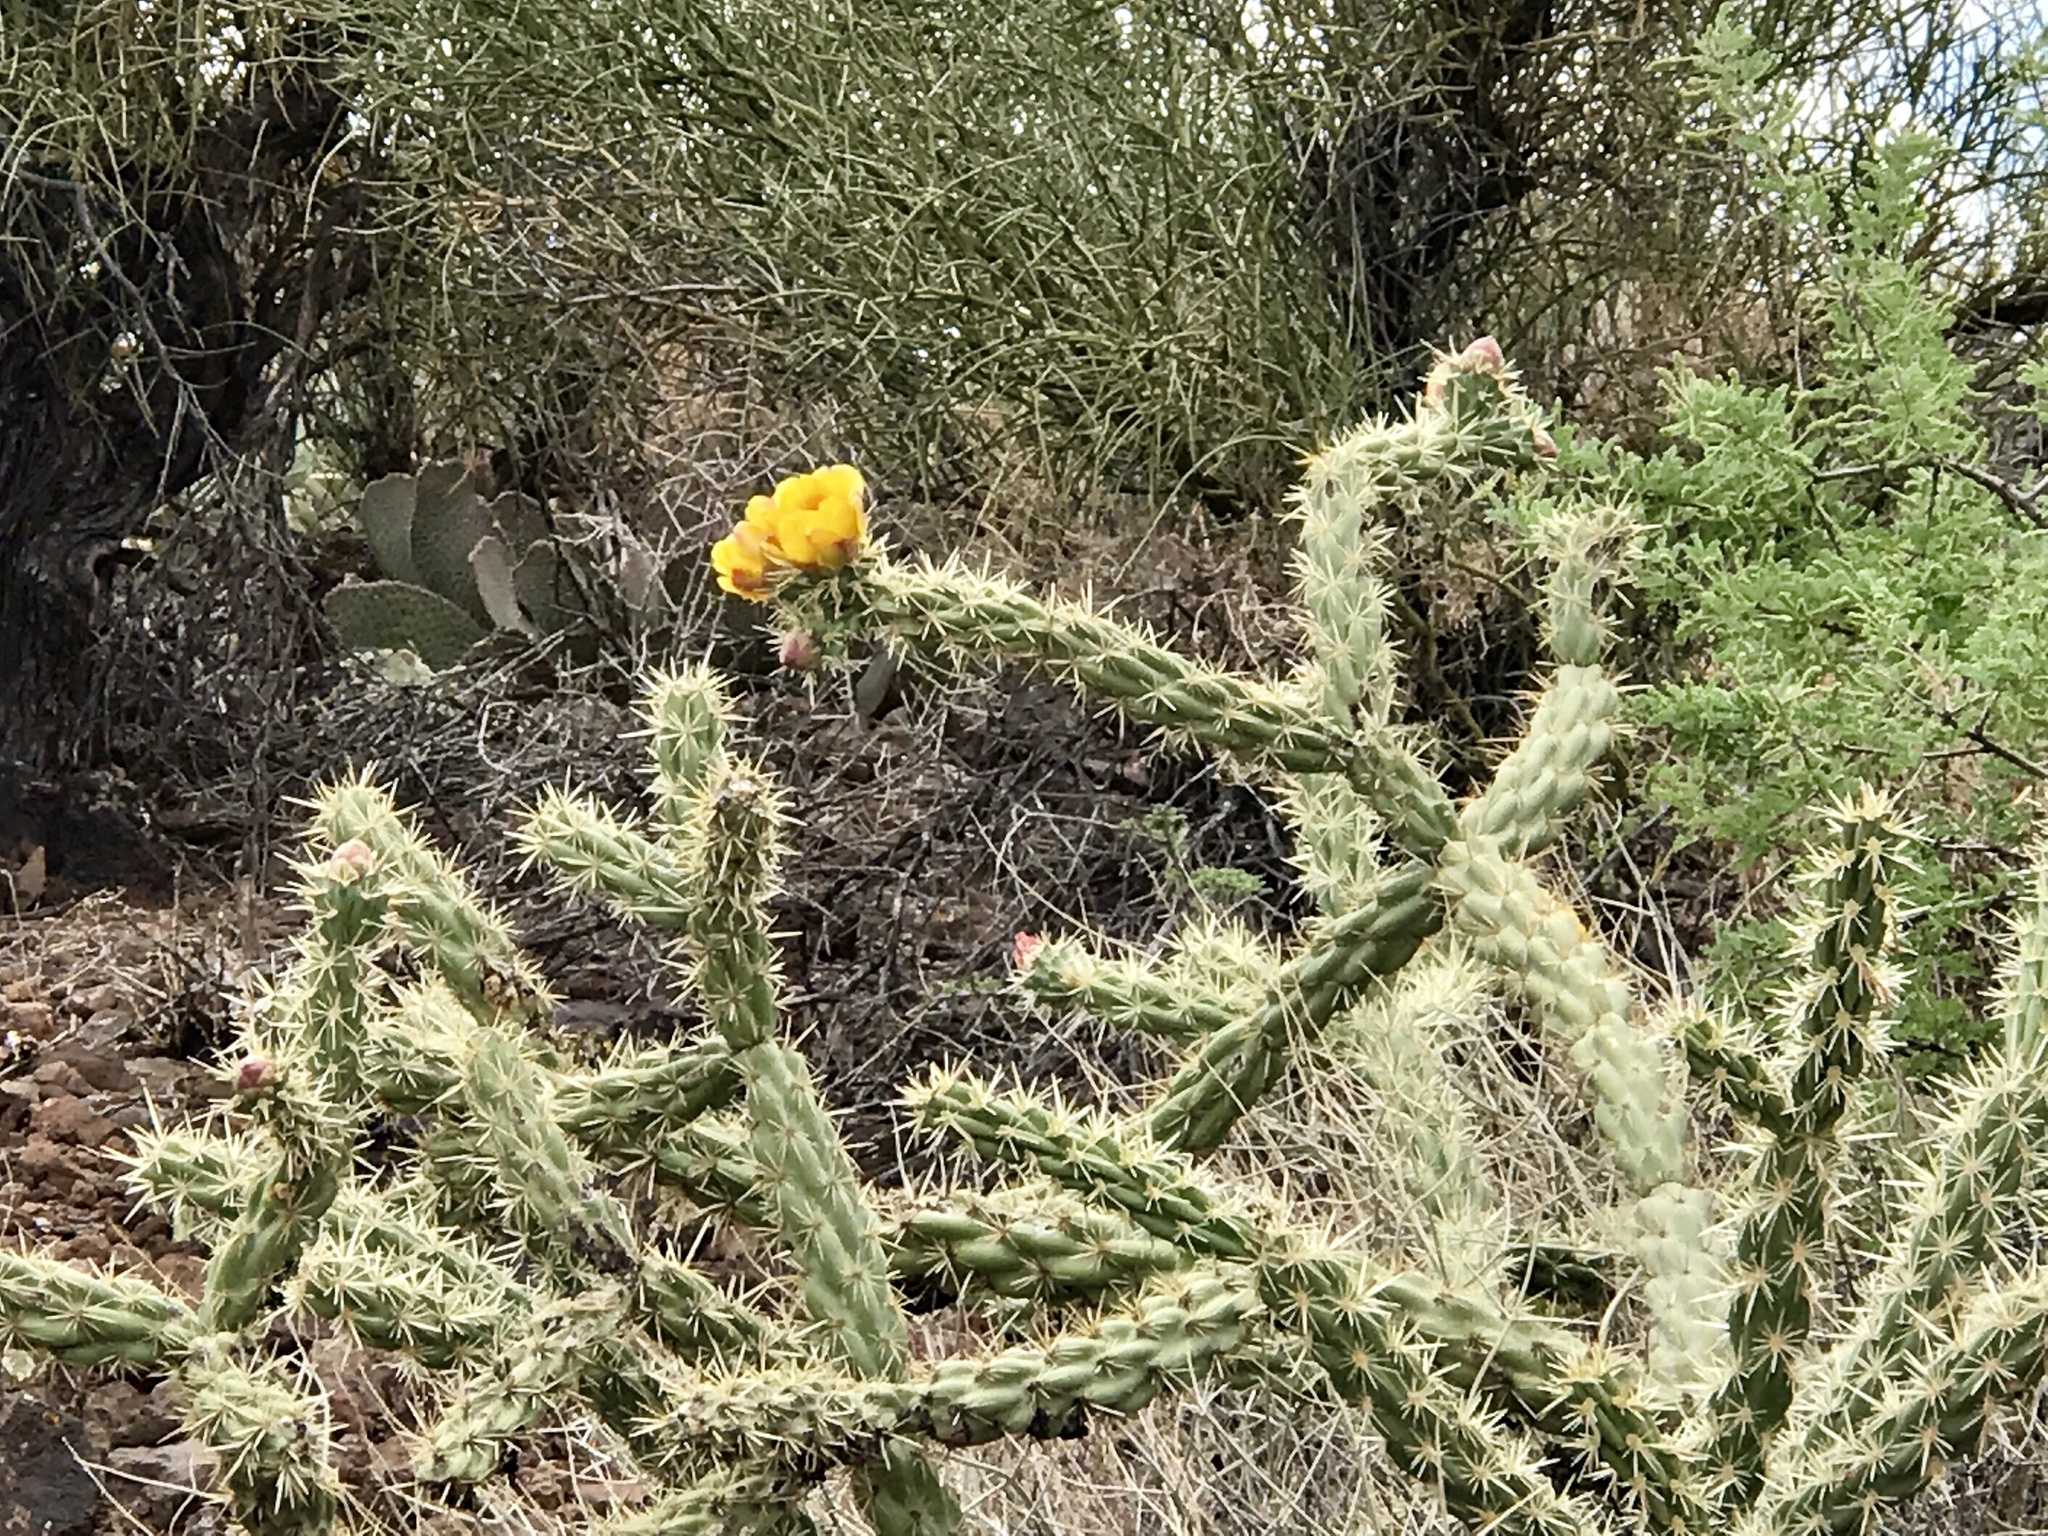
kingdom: Plantae
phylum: Tracheophyta
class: Magnoliopsida
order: Caryophyllales
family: Cactaceae
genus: Cylindropuntia
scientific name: Cylindropuntia acanthocarpa
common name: Buckhorn cholla
